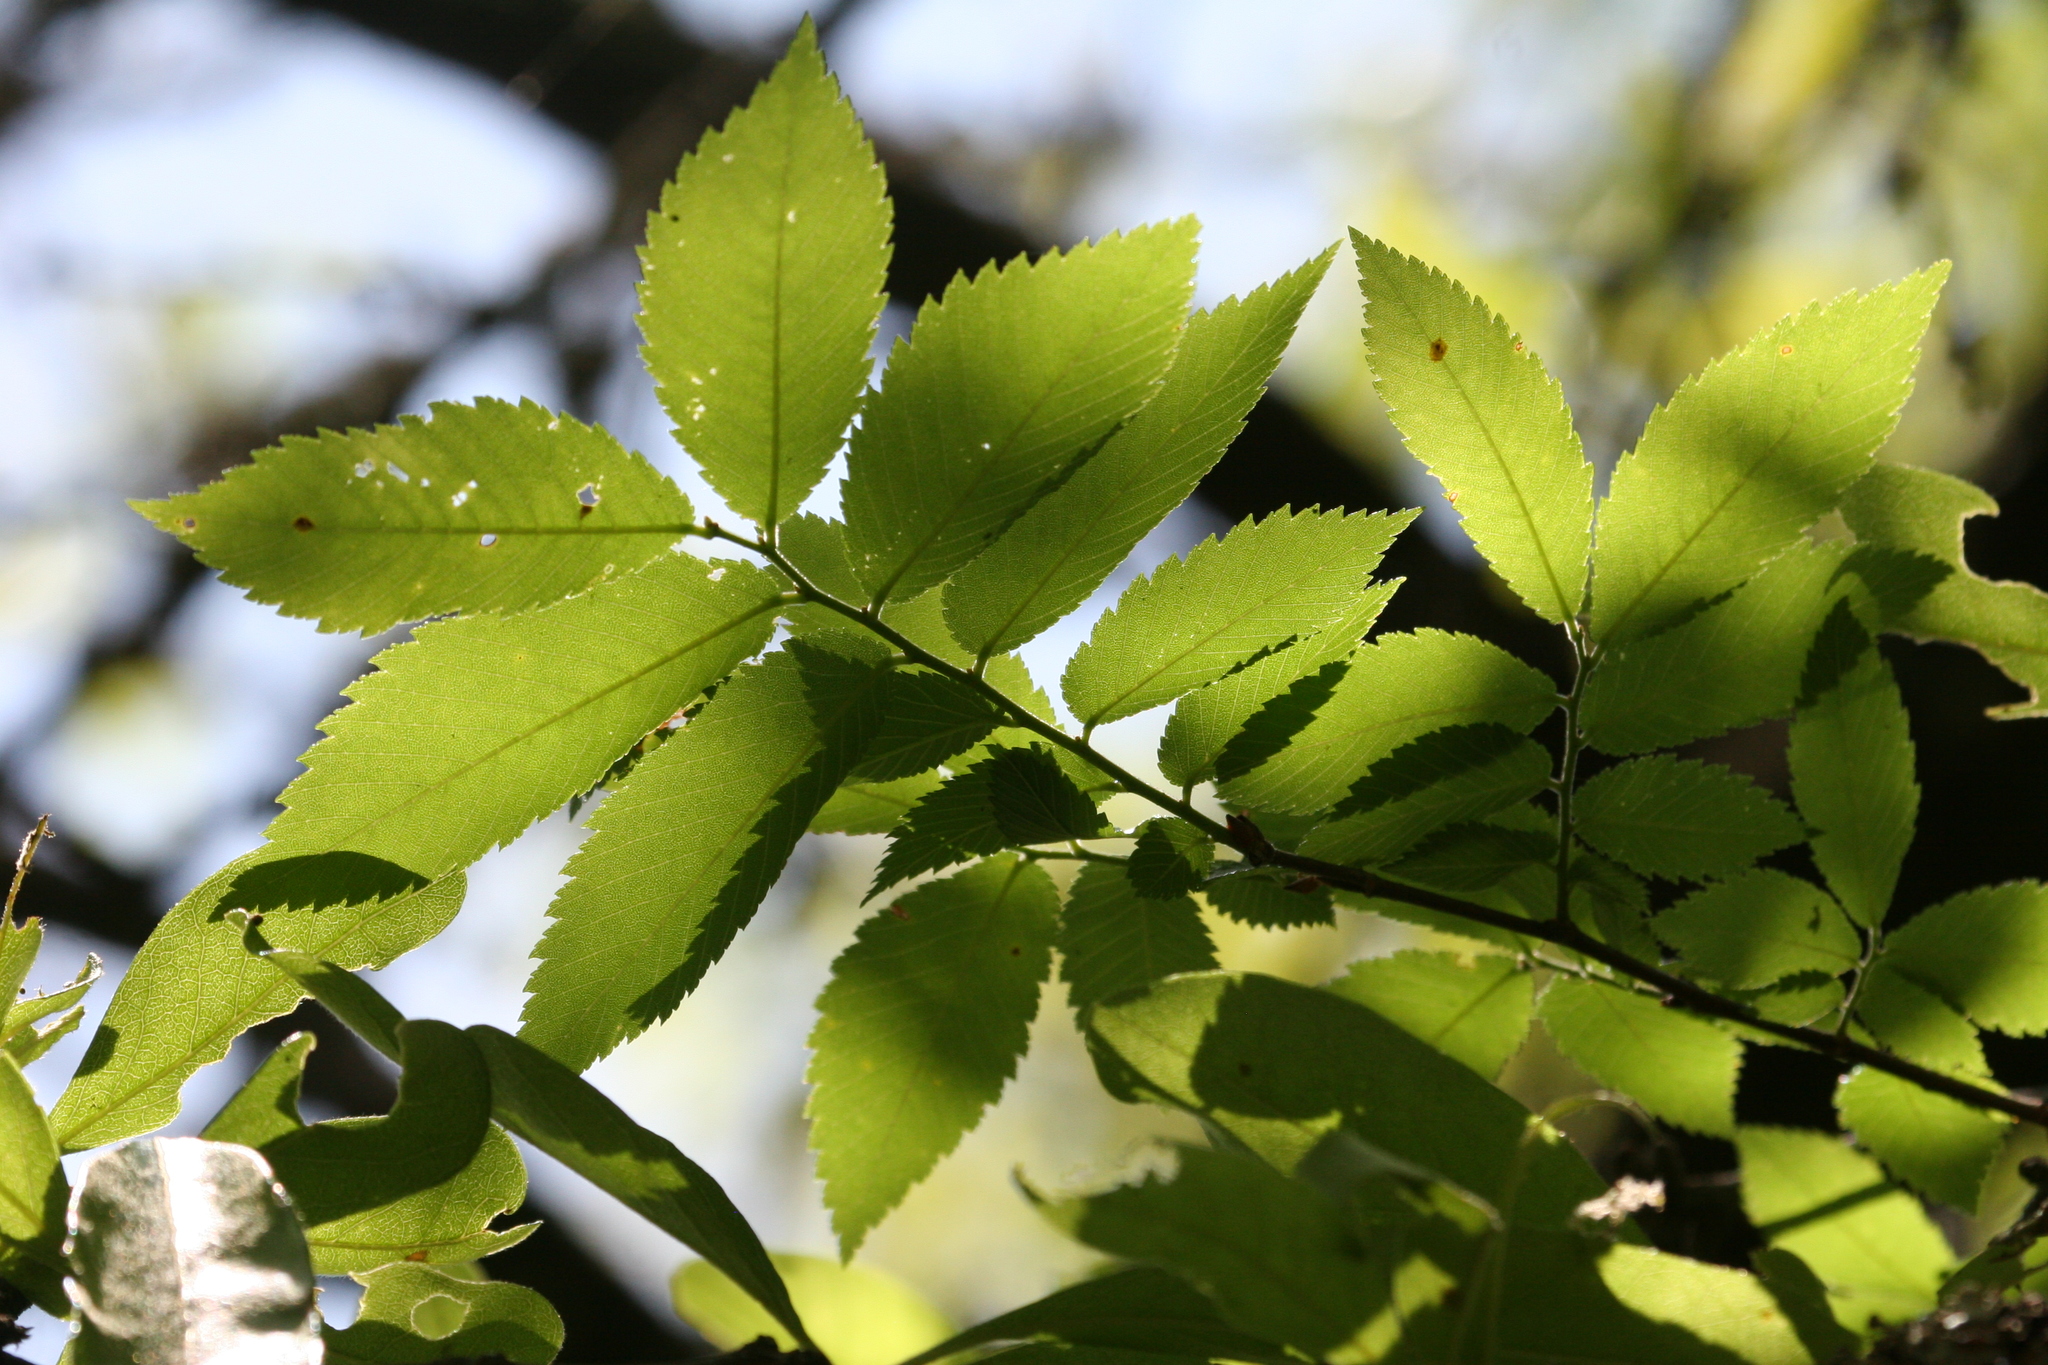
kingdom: Plantae
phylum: Tracheophyta
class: Magnoliopsida
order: Rosales
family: Ulmaceae
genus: Ulmus
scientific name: Ulmus americana
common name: American elm
